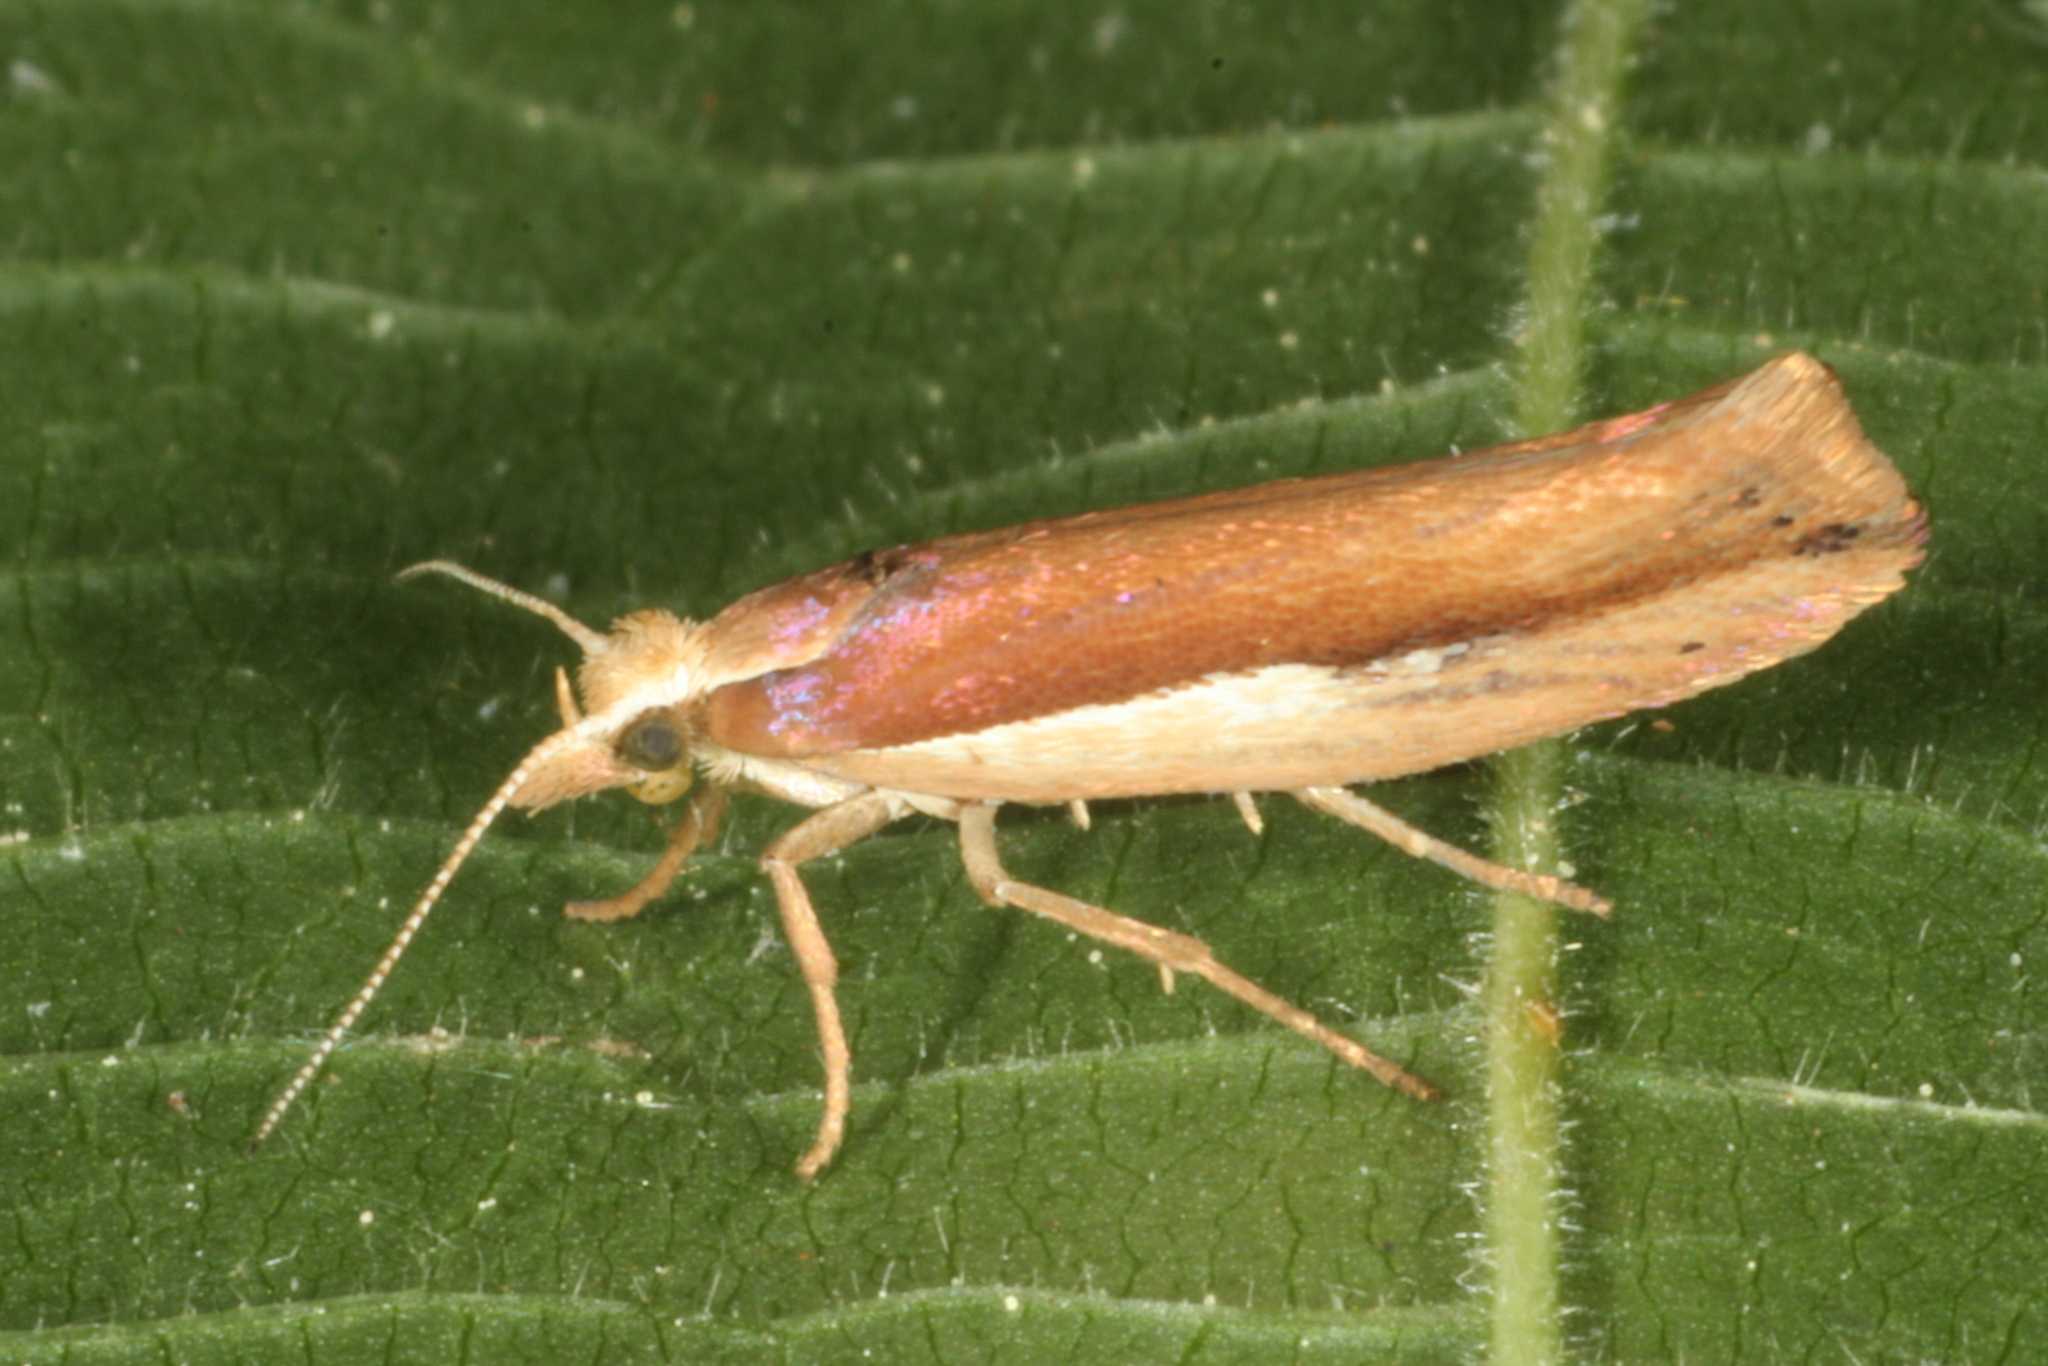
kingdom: Animalia
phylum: Arthropoda
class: Insecta
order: Lepidoptera
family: Ypsolophidae
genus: Ypsolopha
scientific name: Ypsolopha parenthesella
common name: White-shouldered smudge
